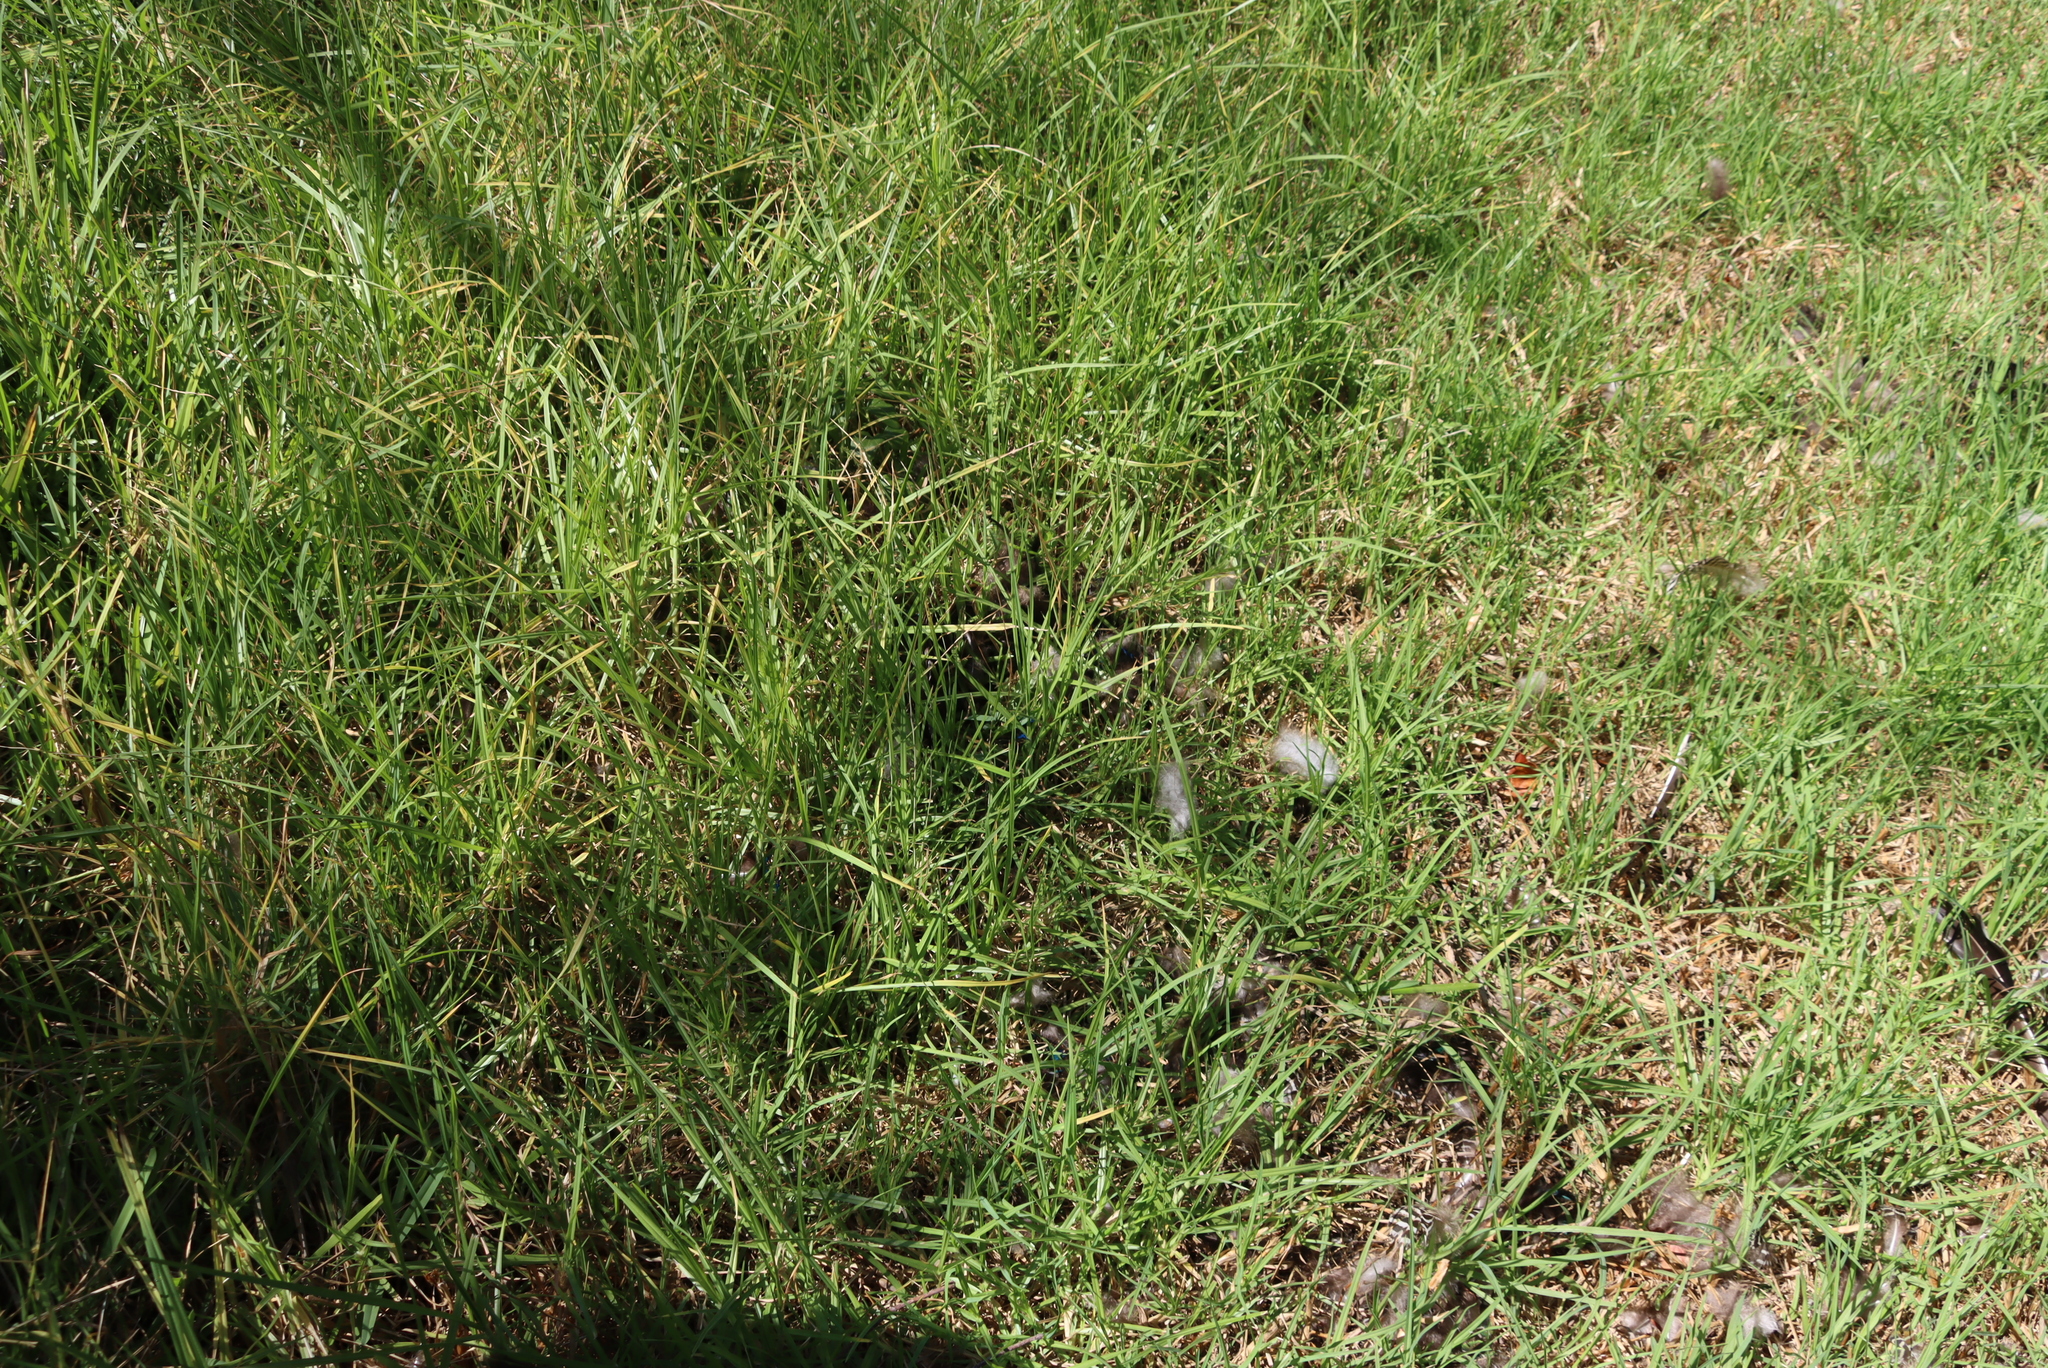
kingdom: Plantae
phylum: Tracheophyta
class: Liliopsida
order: Poales
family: Poaceae
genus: Cenchrus
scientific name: Cenchrus clandestinus
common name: Kikuyugrass
